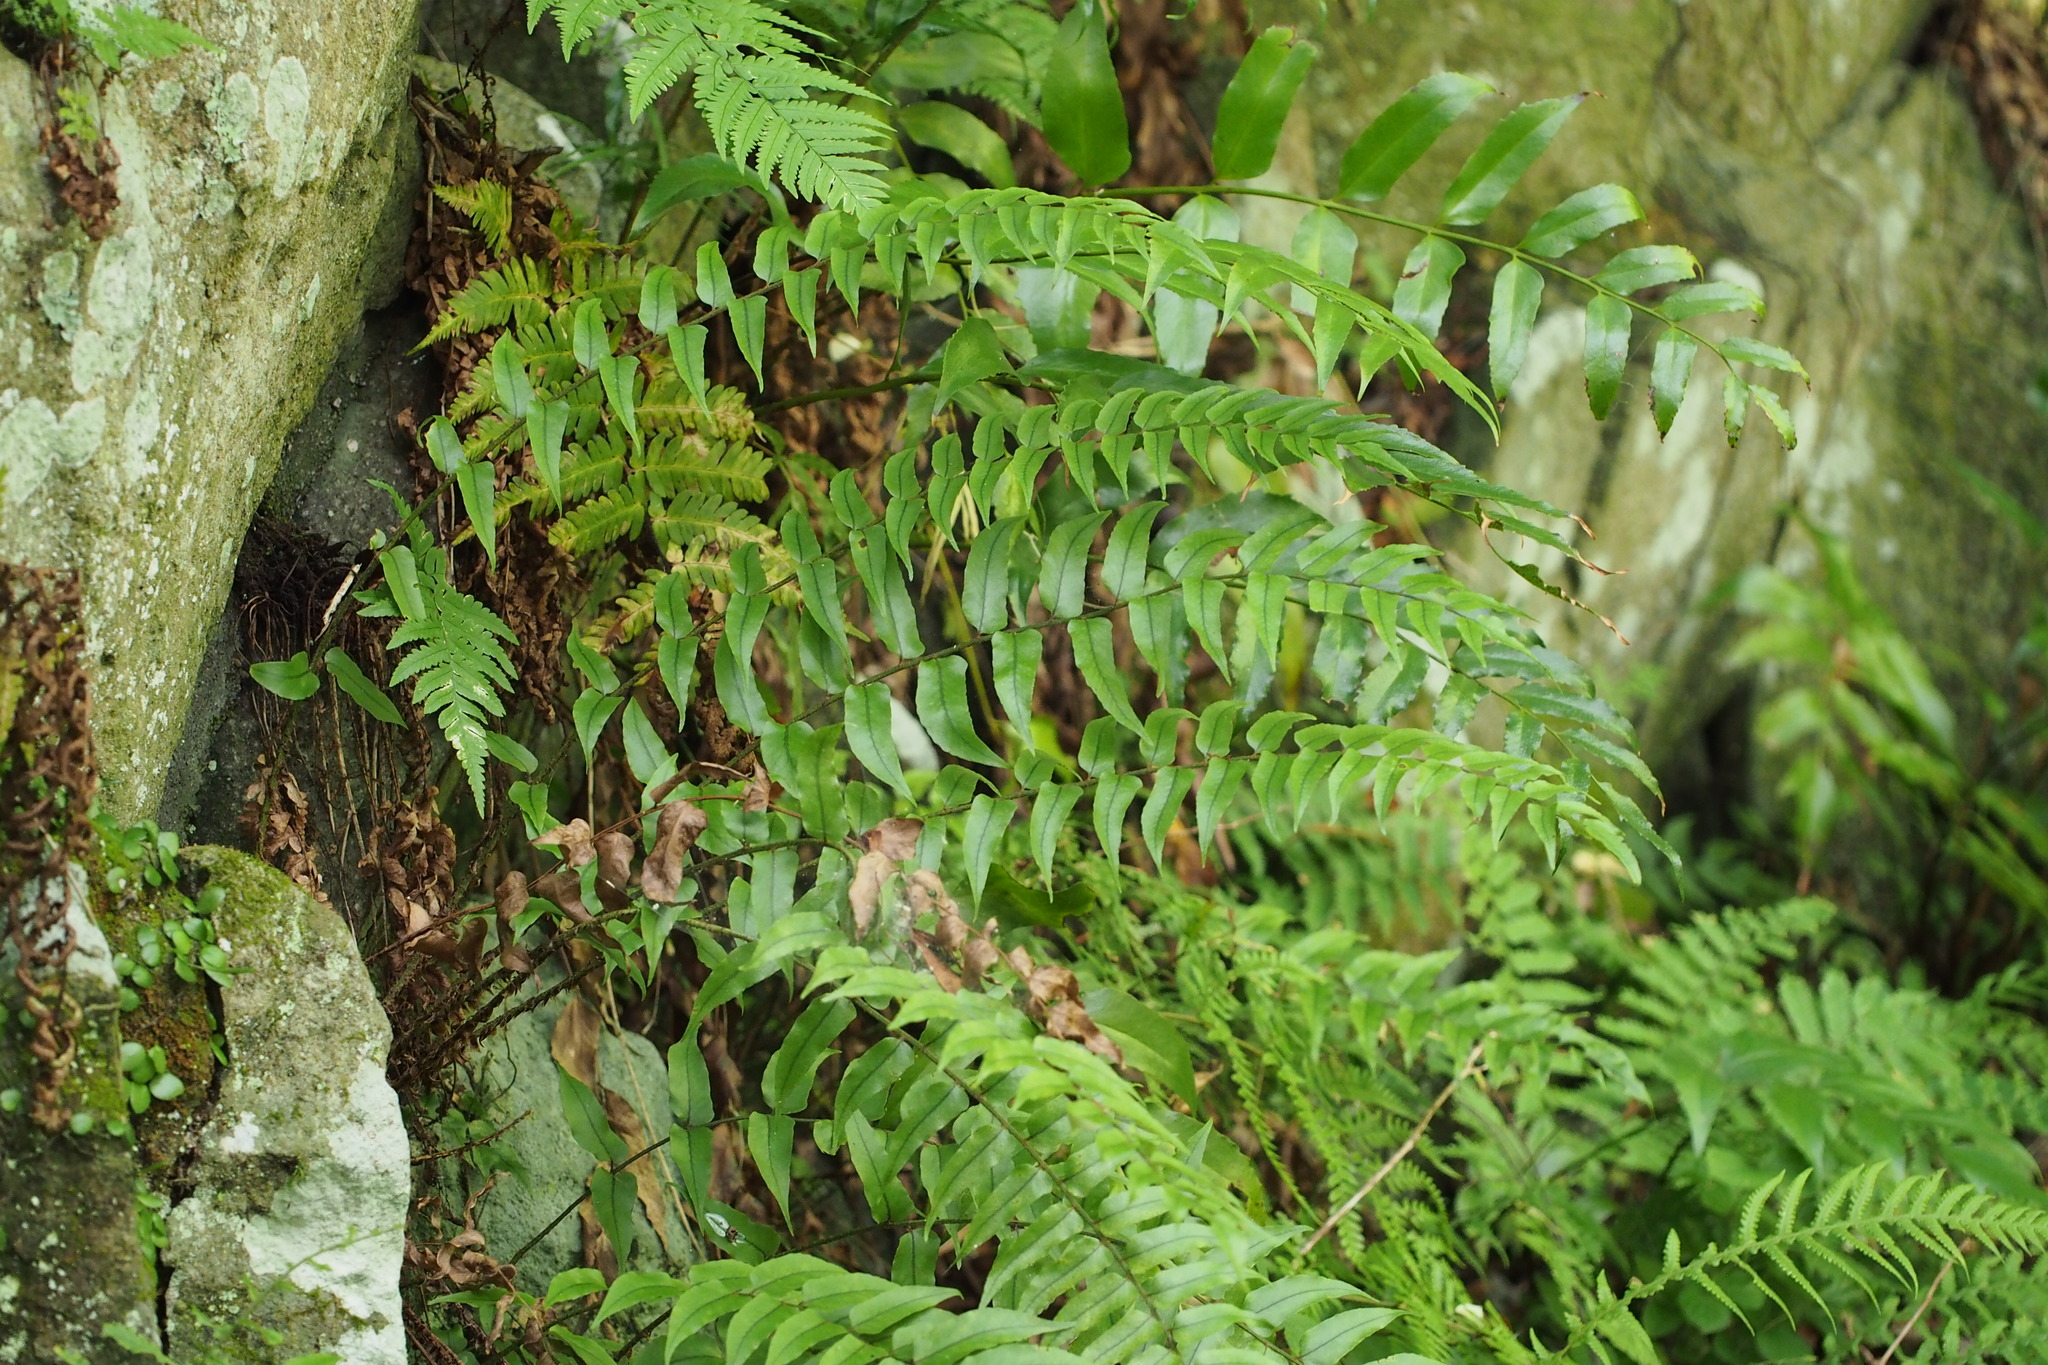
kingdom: Plantae
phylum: Tracheophyta
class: Polypodiopsida
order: Polypodiales
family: Dryopteridaceae
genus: Cyrtomium
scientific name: Cyrtomium fortunei
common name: Asian netvein hollyfern
